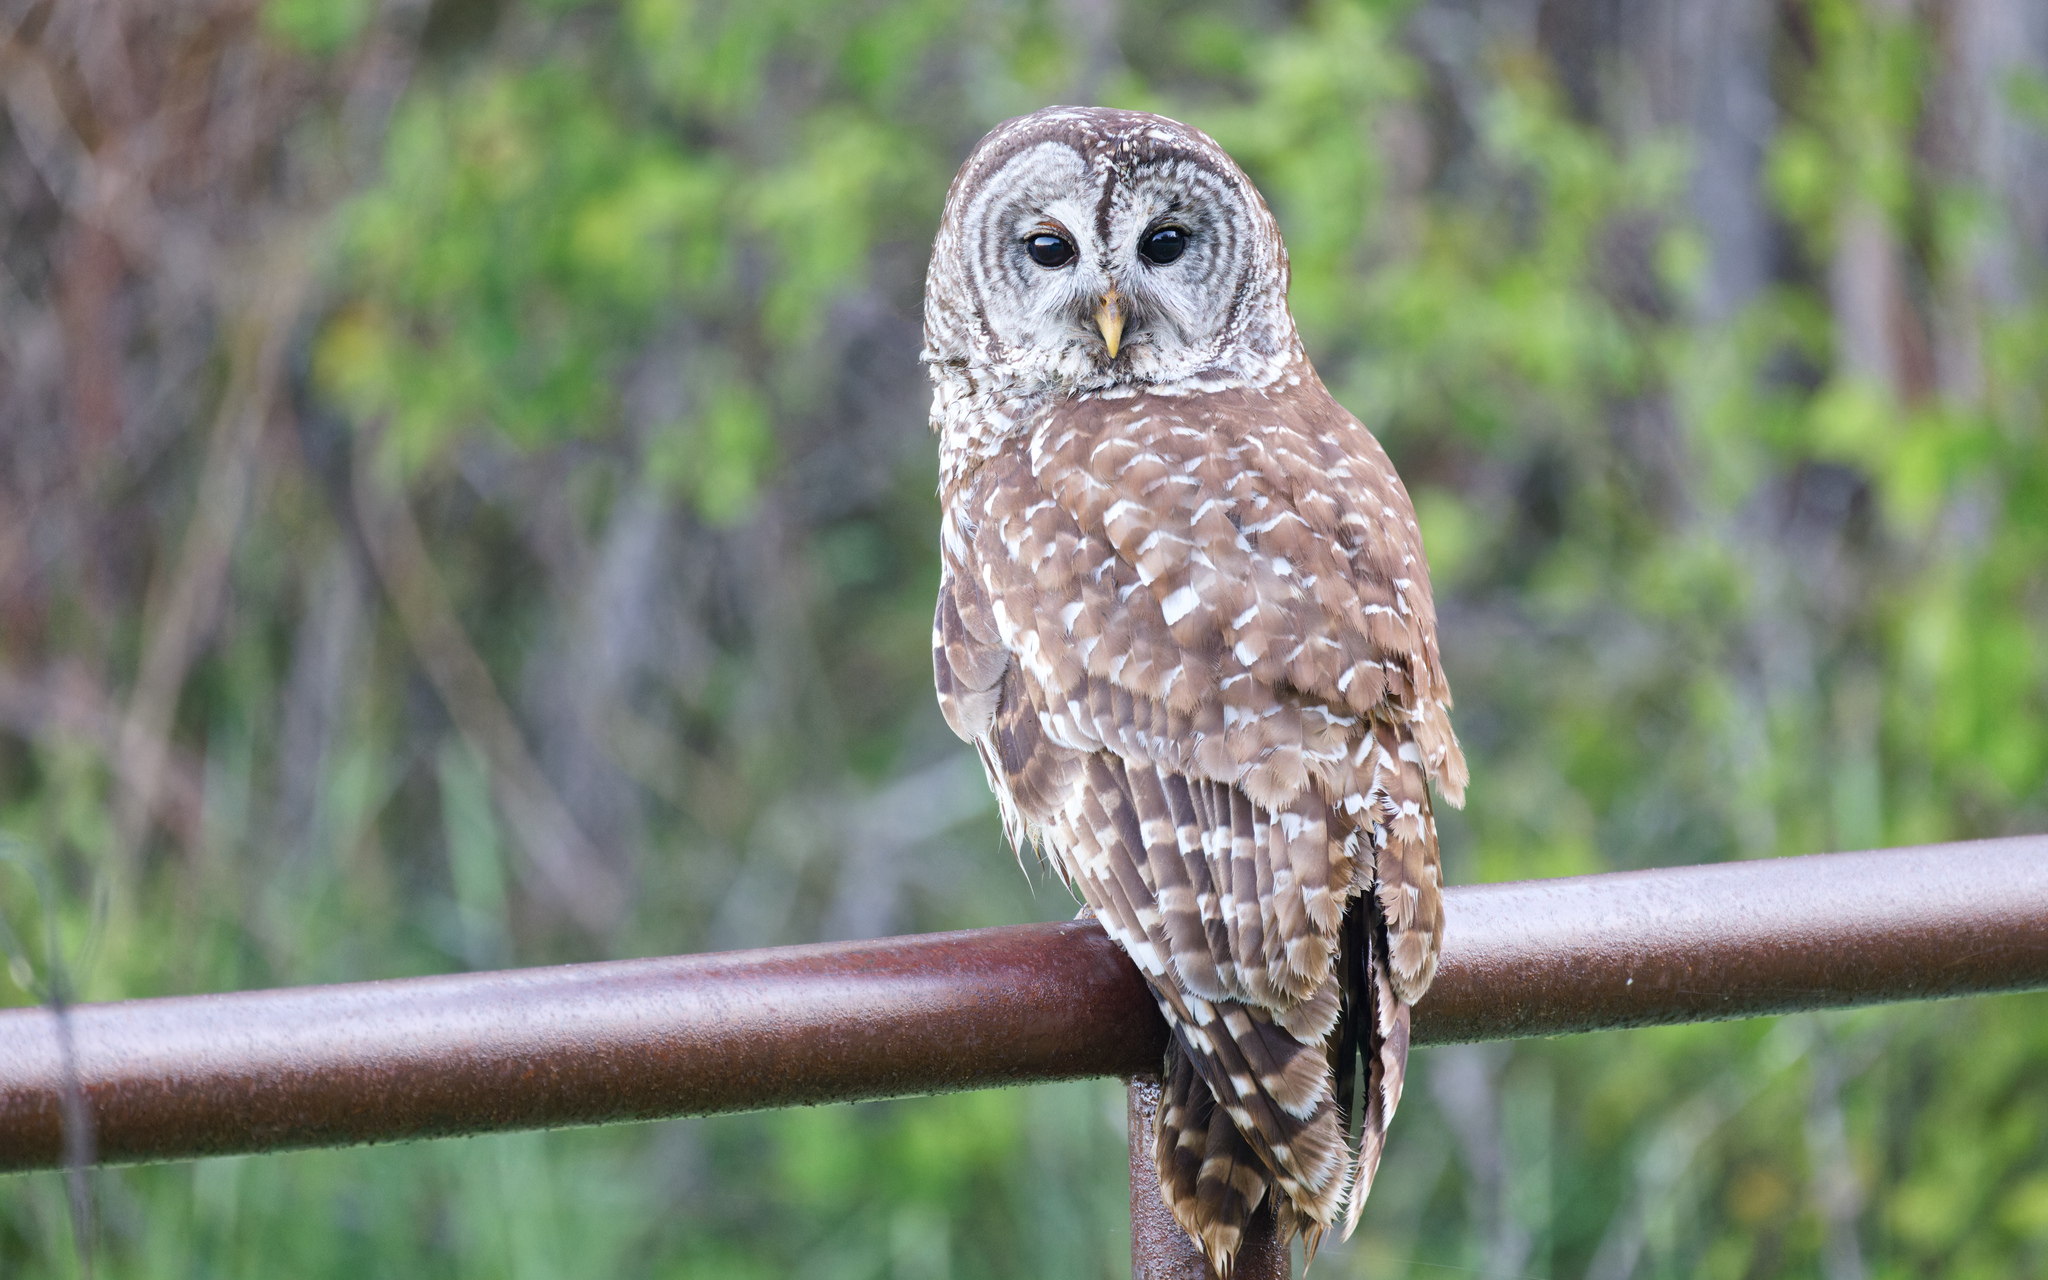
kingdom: Animalia
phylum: Chordata
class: Aves
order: Strigiformes
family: Strigidae
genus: Strix
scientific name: Strix varia
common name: Barred owl
